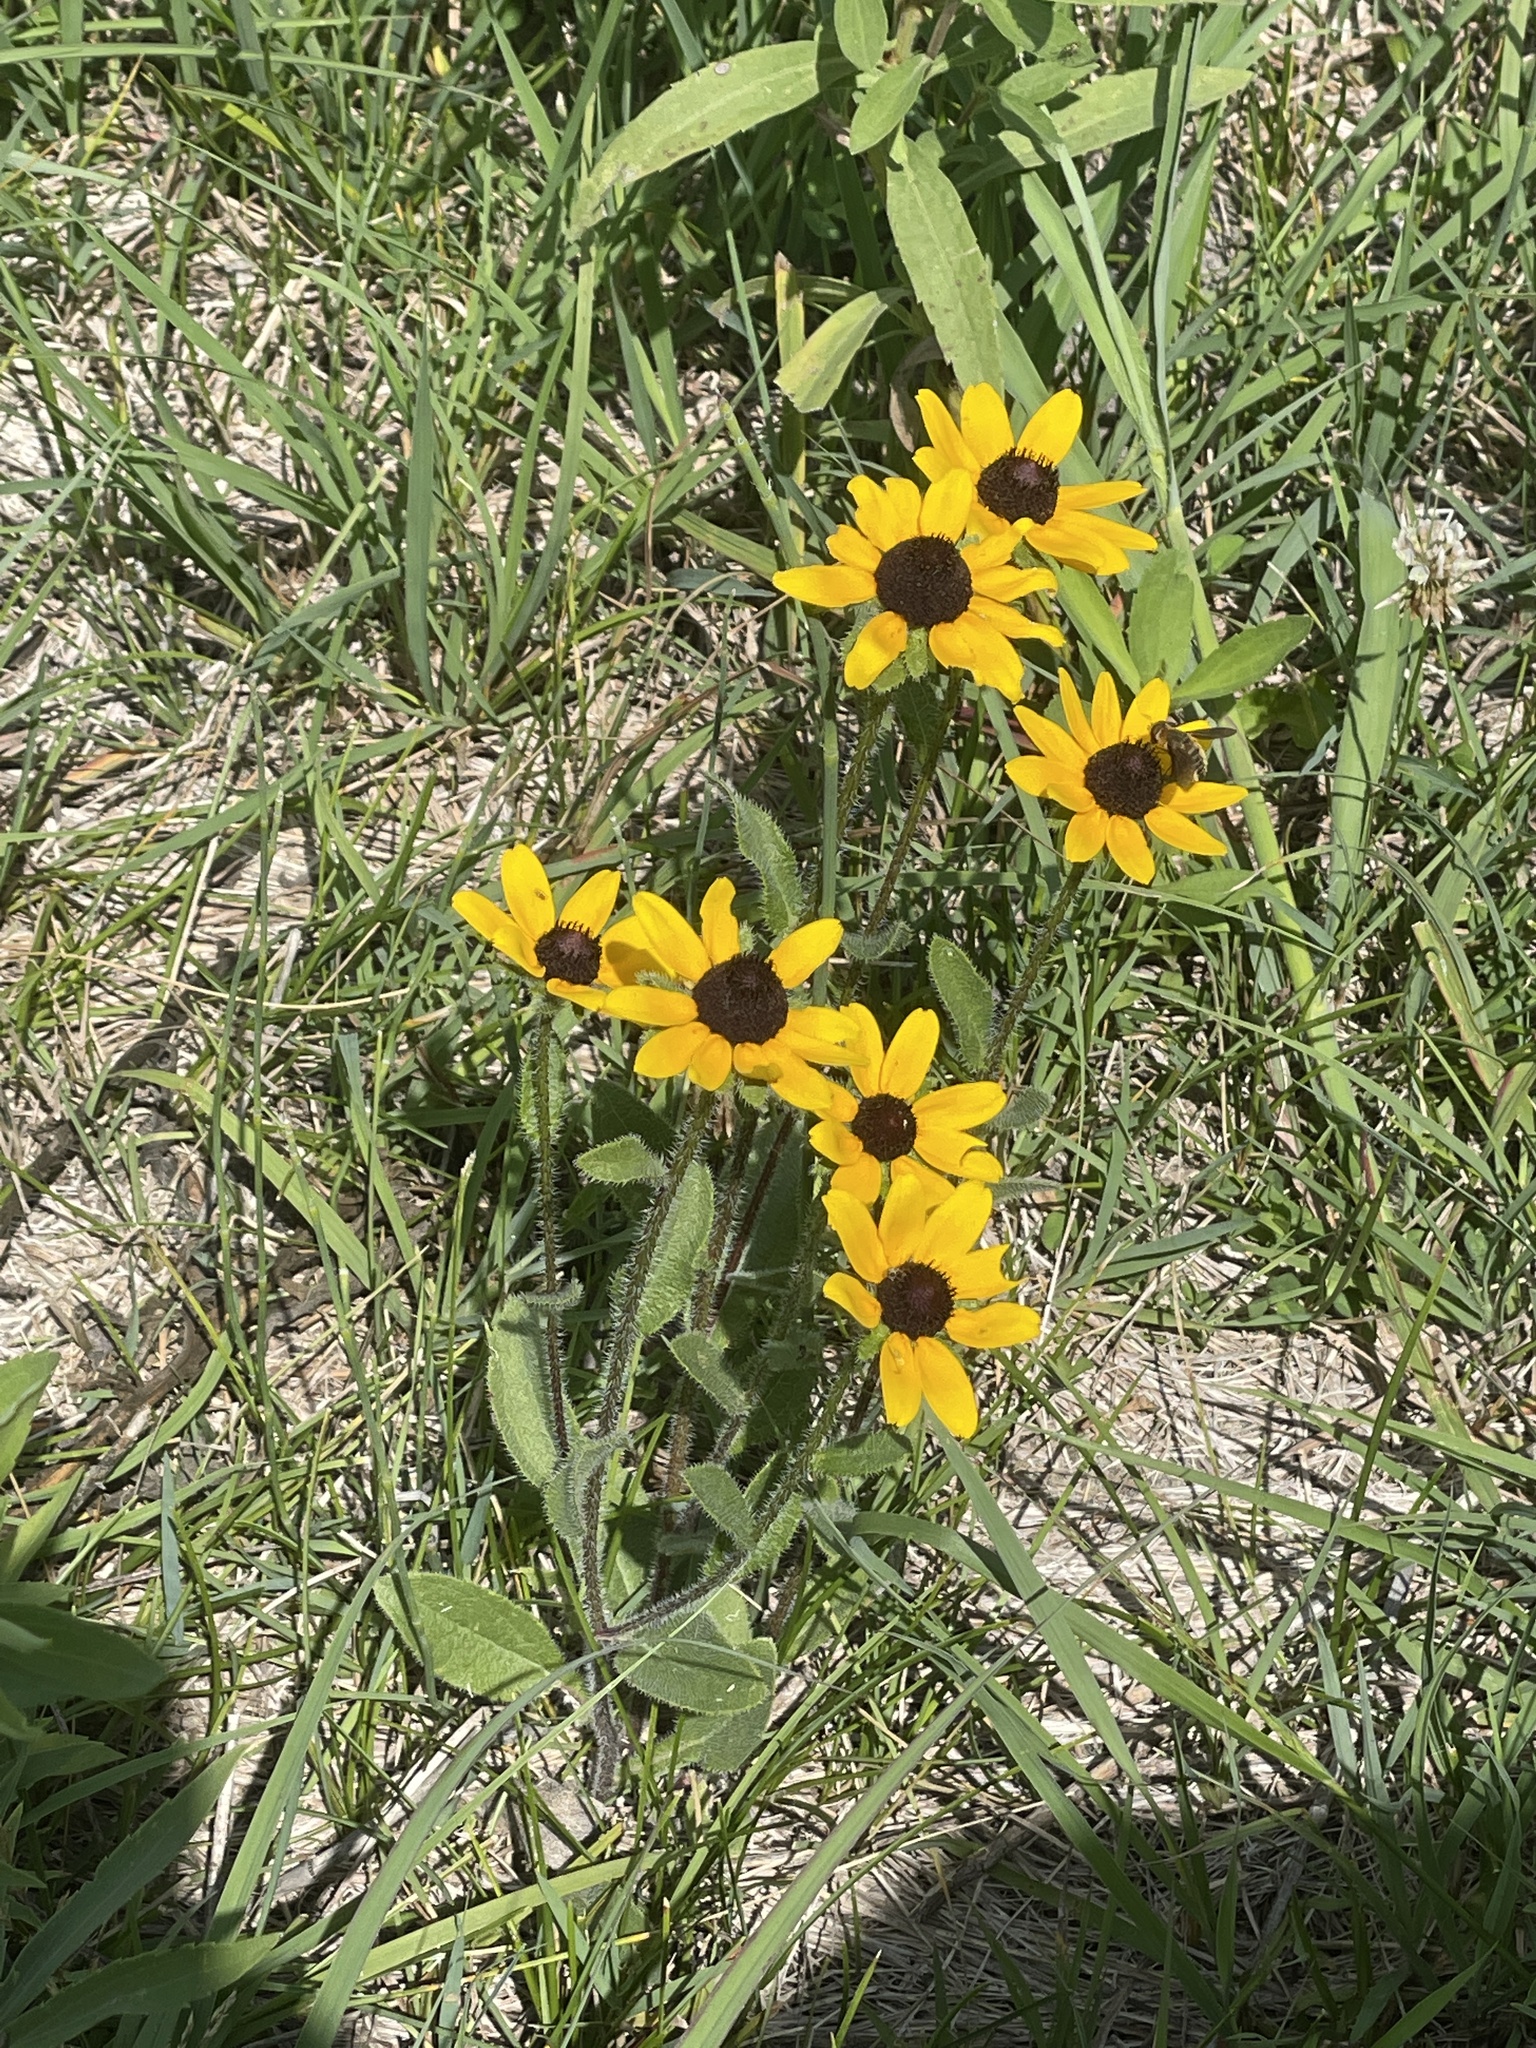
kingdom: Plantae
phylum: Tracheophyta
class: Magnoliopsida
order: Asterales
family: Asteraceae
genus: Rudbeckia
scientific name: Rudbeckia hirta
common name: Black-eyed-susan
